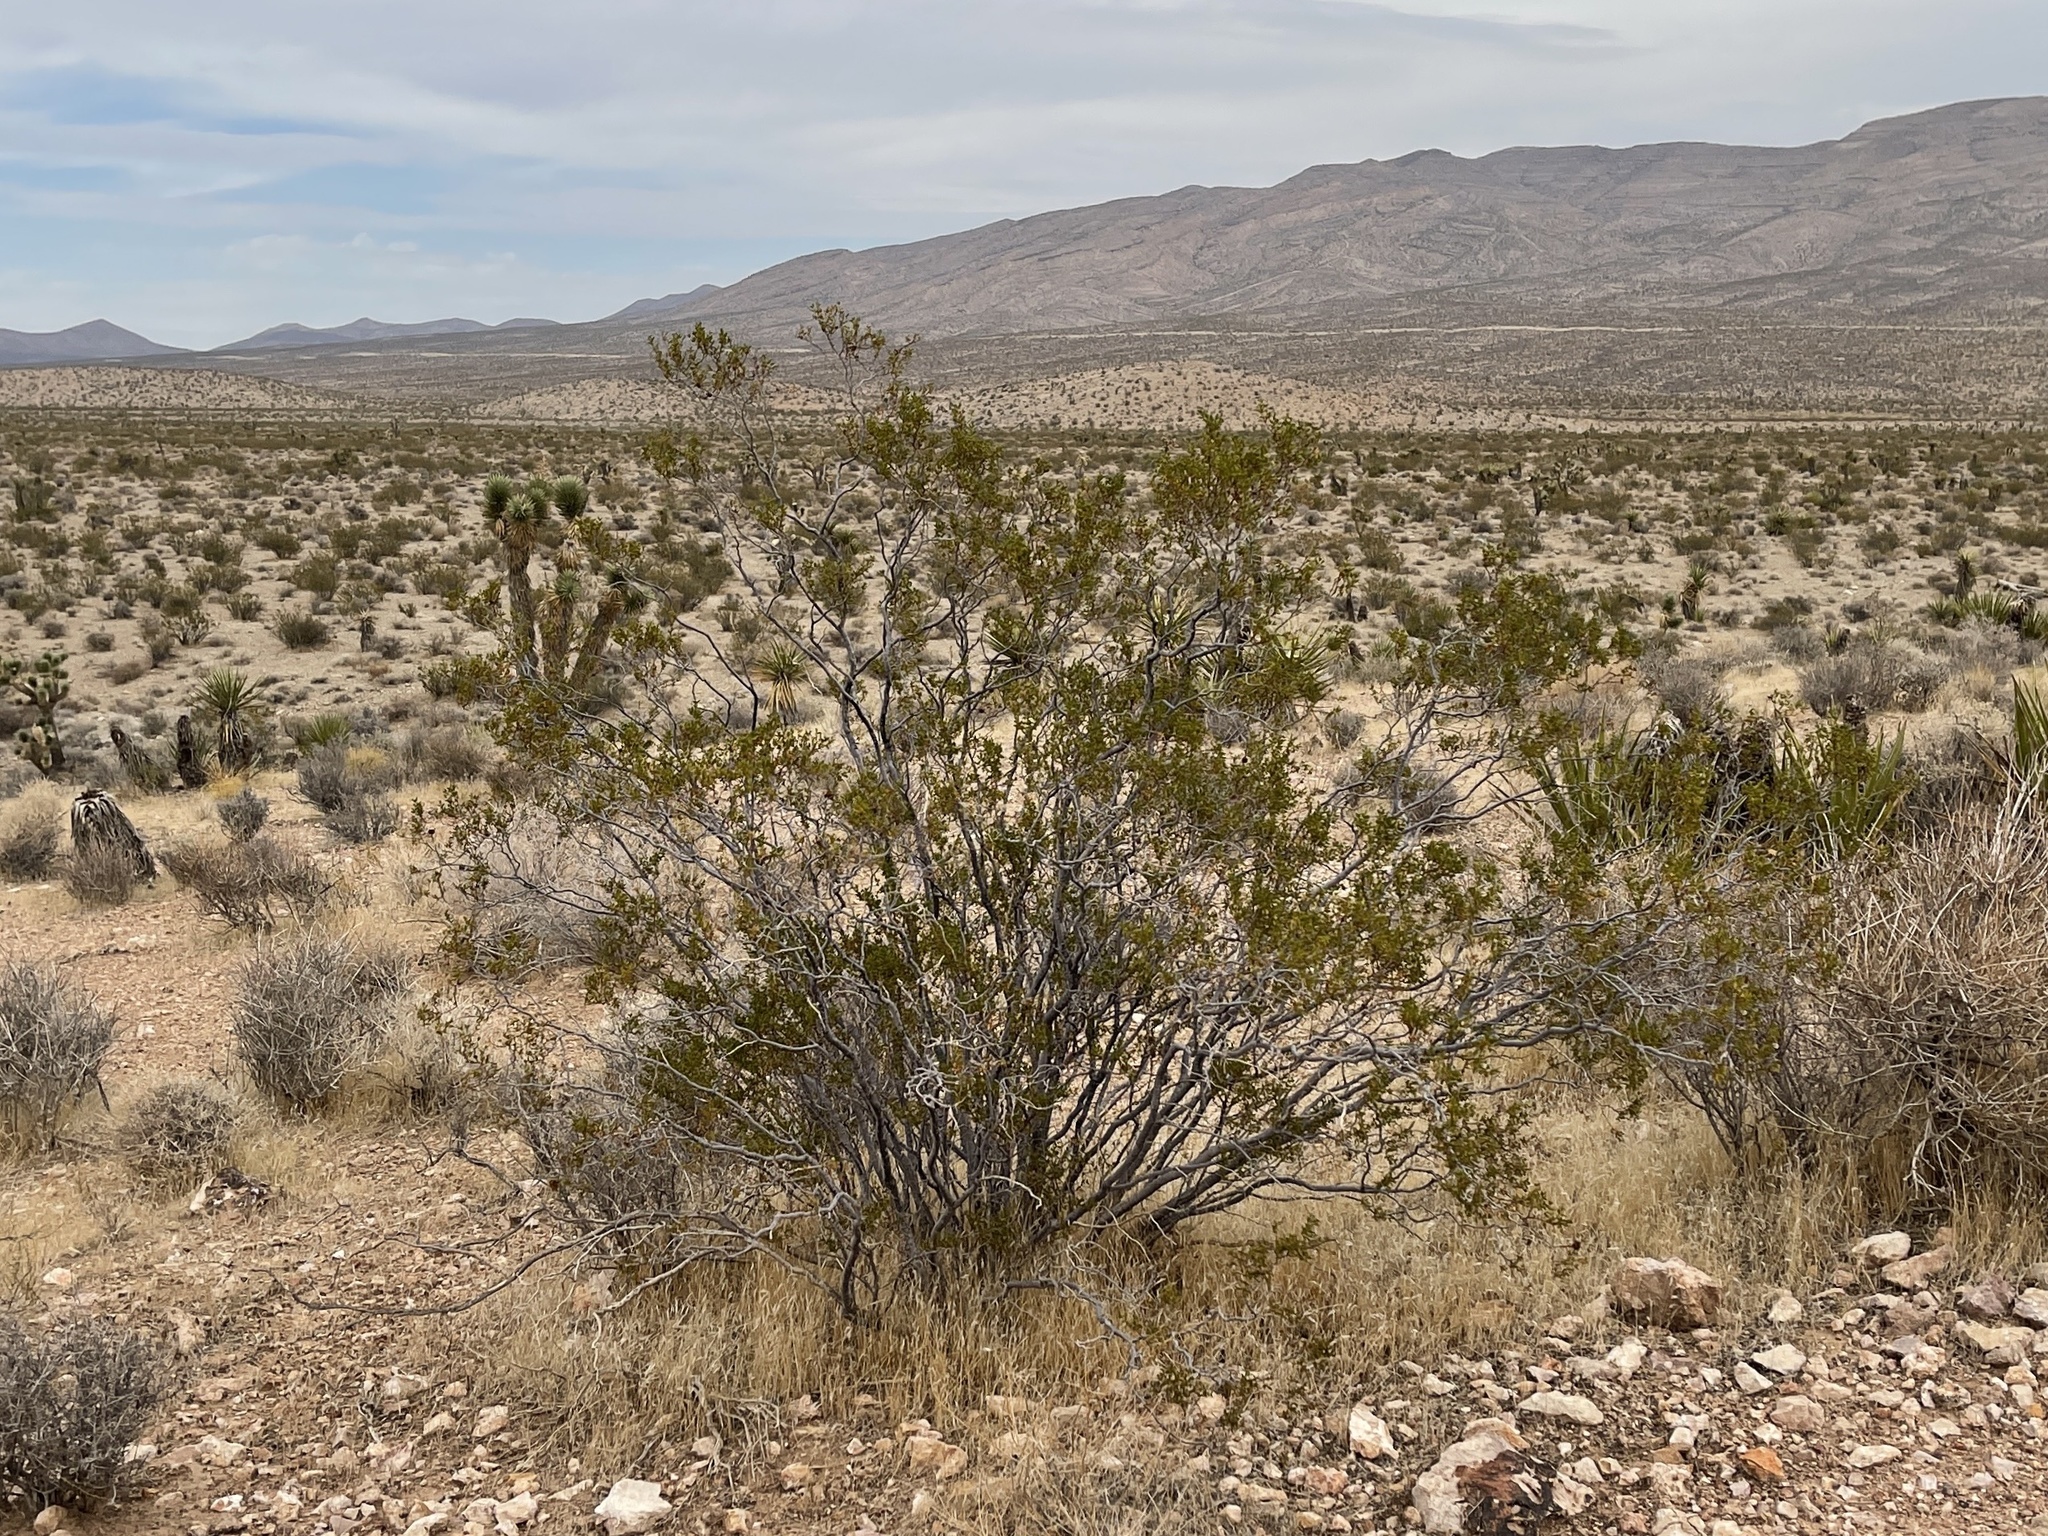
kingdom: Plantae
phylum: Tracheophyta
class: Magnoliopsida
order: Zygophyllales
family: Zygophyllaceae
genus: Larrea
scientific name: Larrea tridentata
